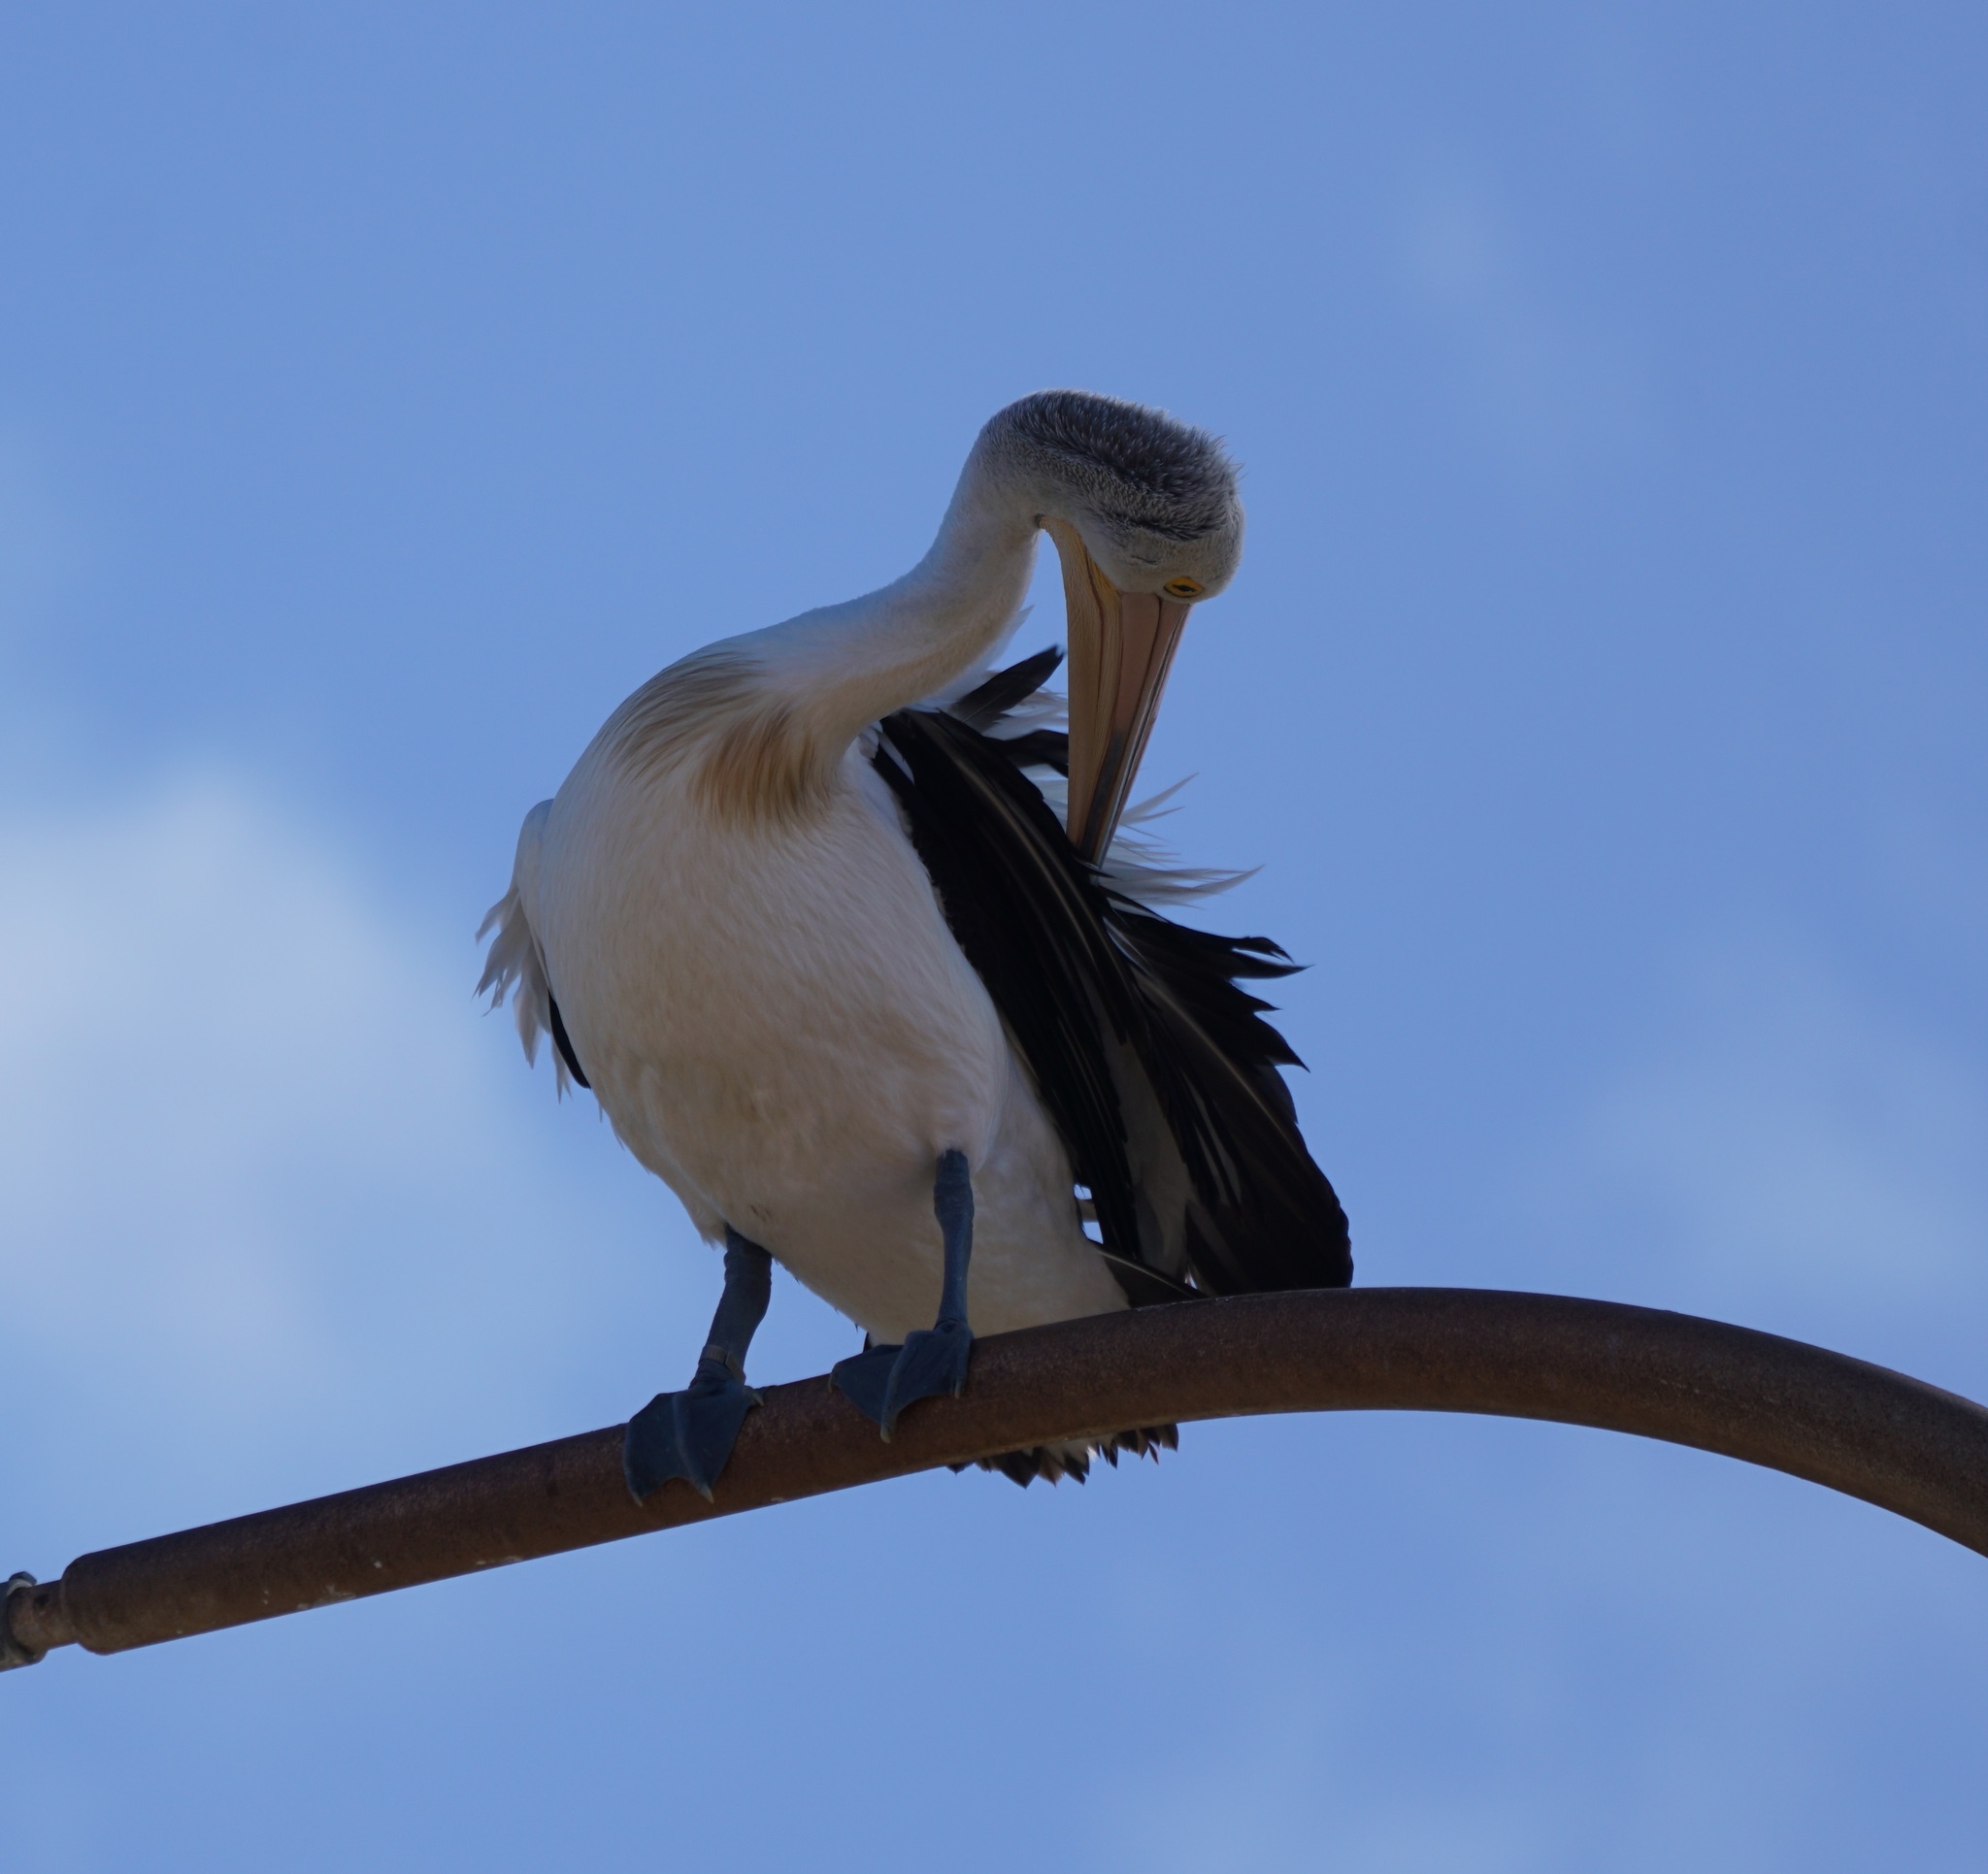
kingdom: Animalia
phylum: Chordata
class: Aves
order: Pelecaniformes
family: Pelecanidae
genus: Pelecanus
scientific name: Pelecanus conspicillatus
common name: Australian pelican
